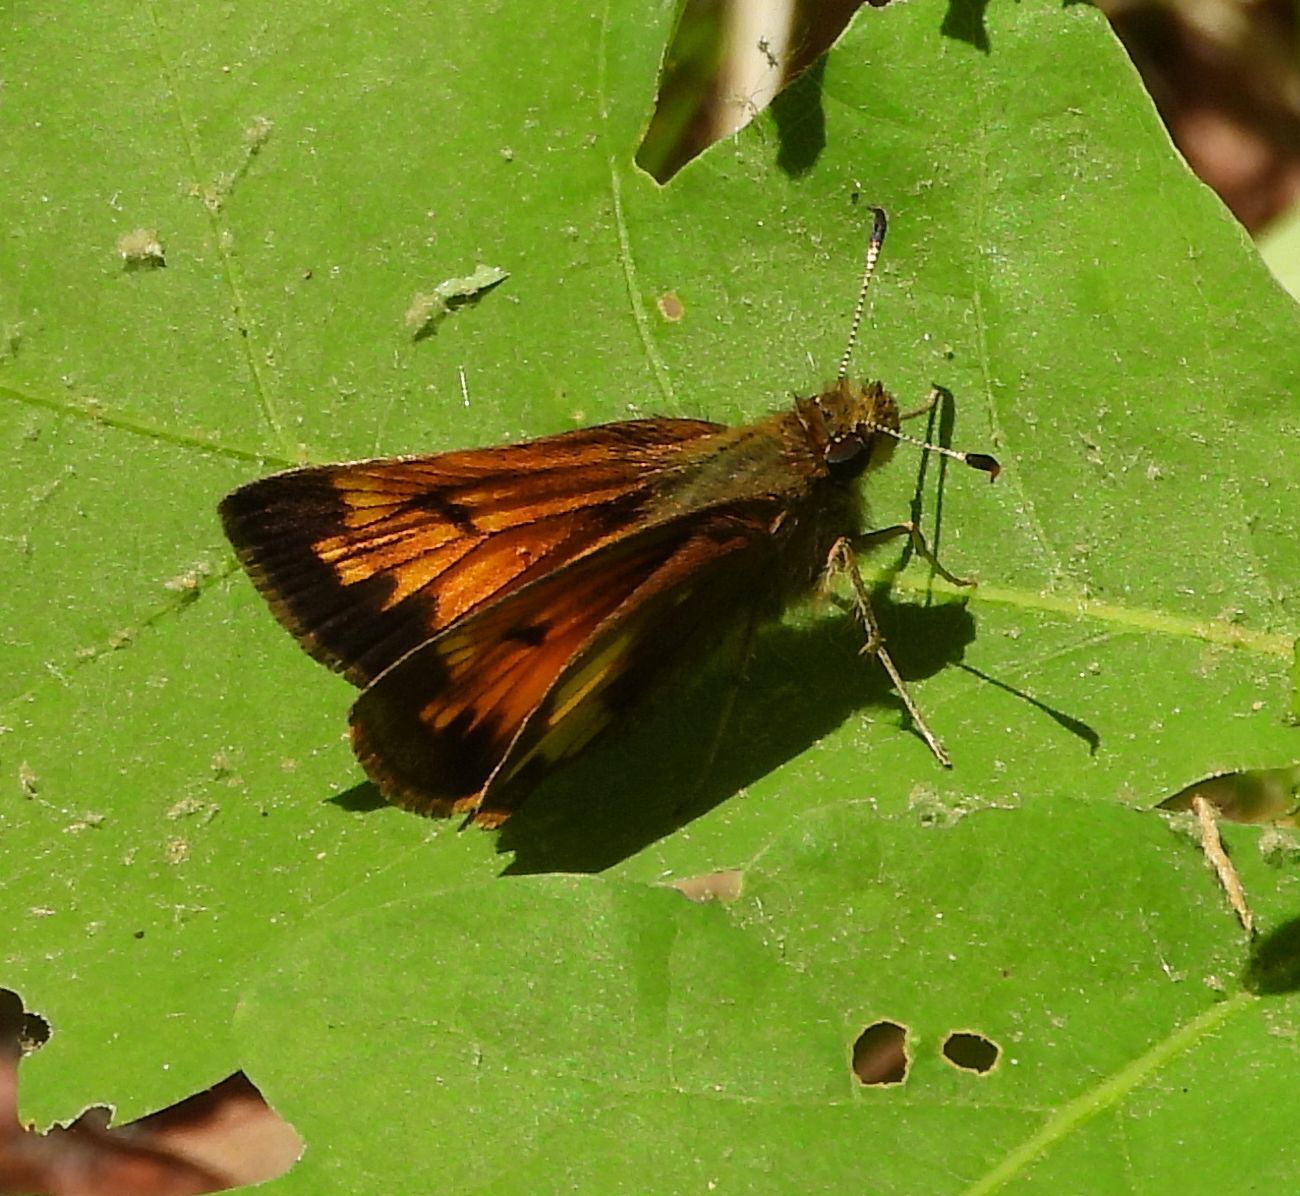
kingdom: Animalia
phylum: Arthropoda
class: Insecta
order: Lepidoptera
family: Hesperiidae
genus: Lon
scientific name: Lon hobomok
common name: Hobomok skipper
